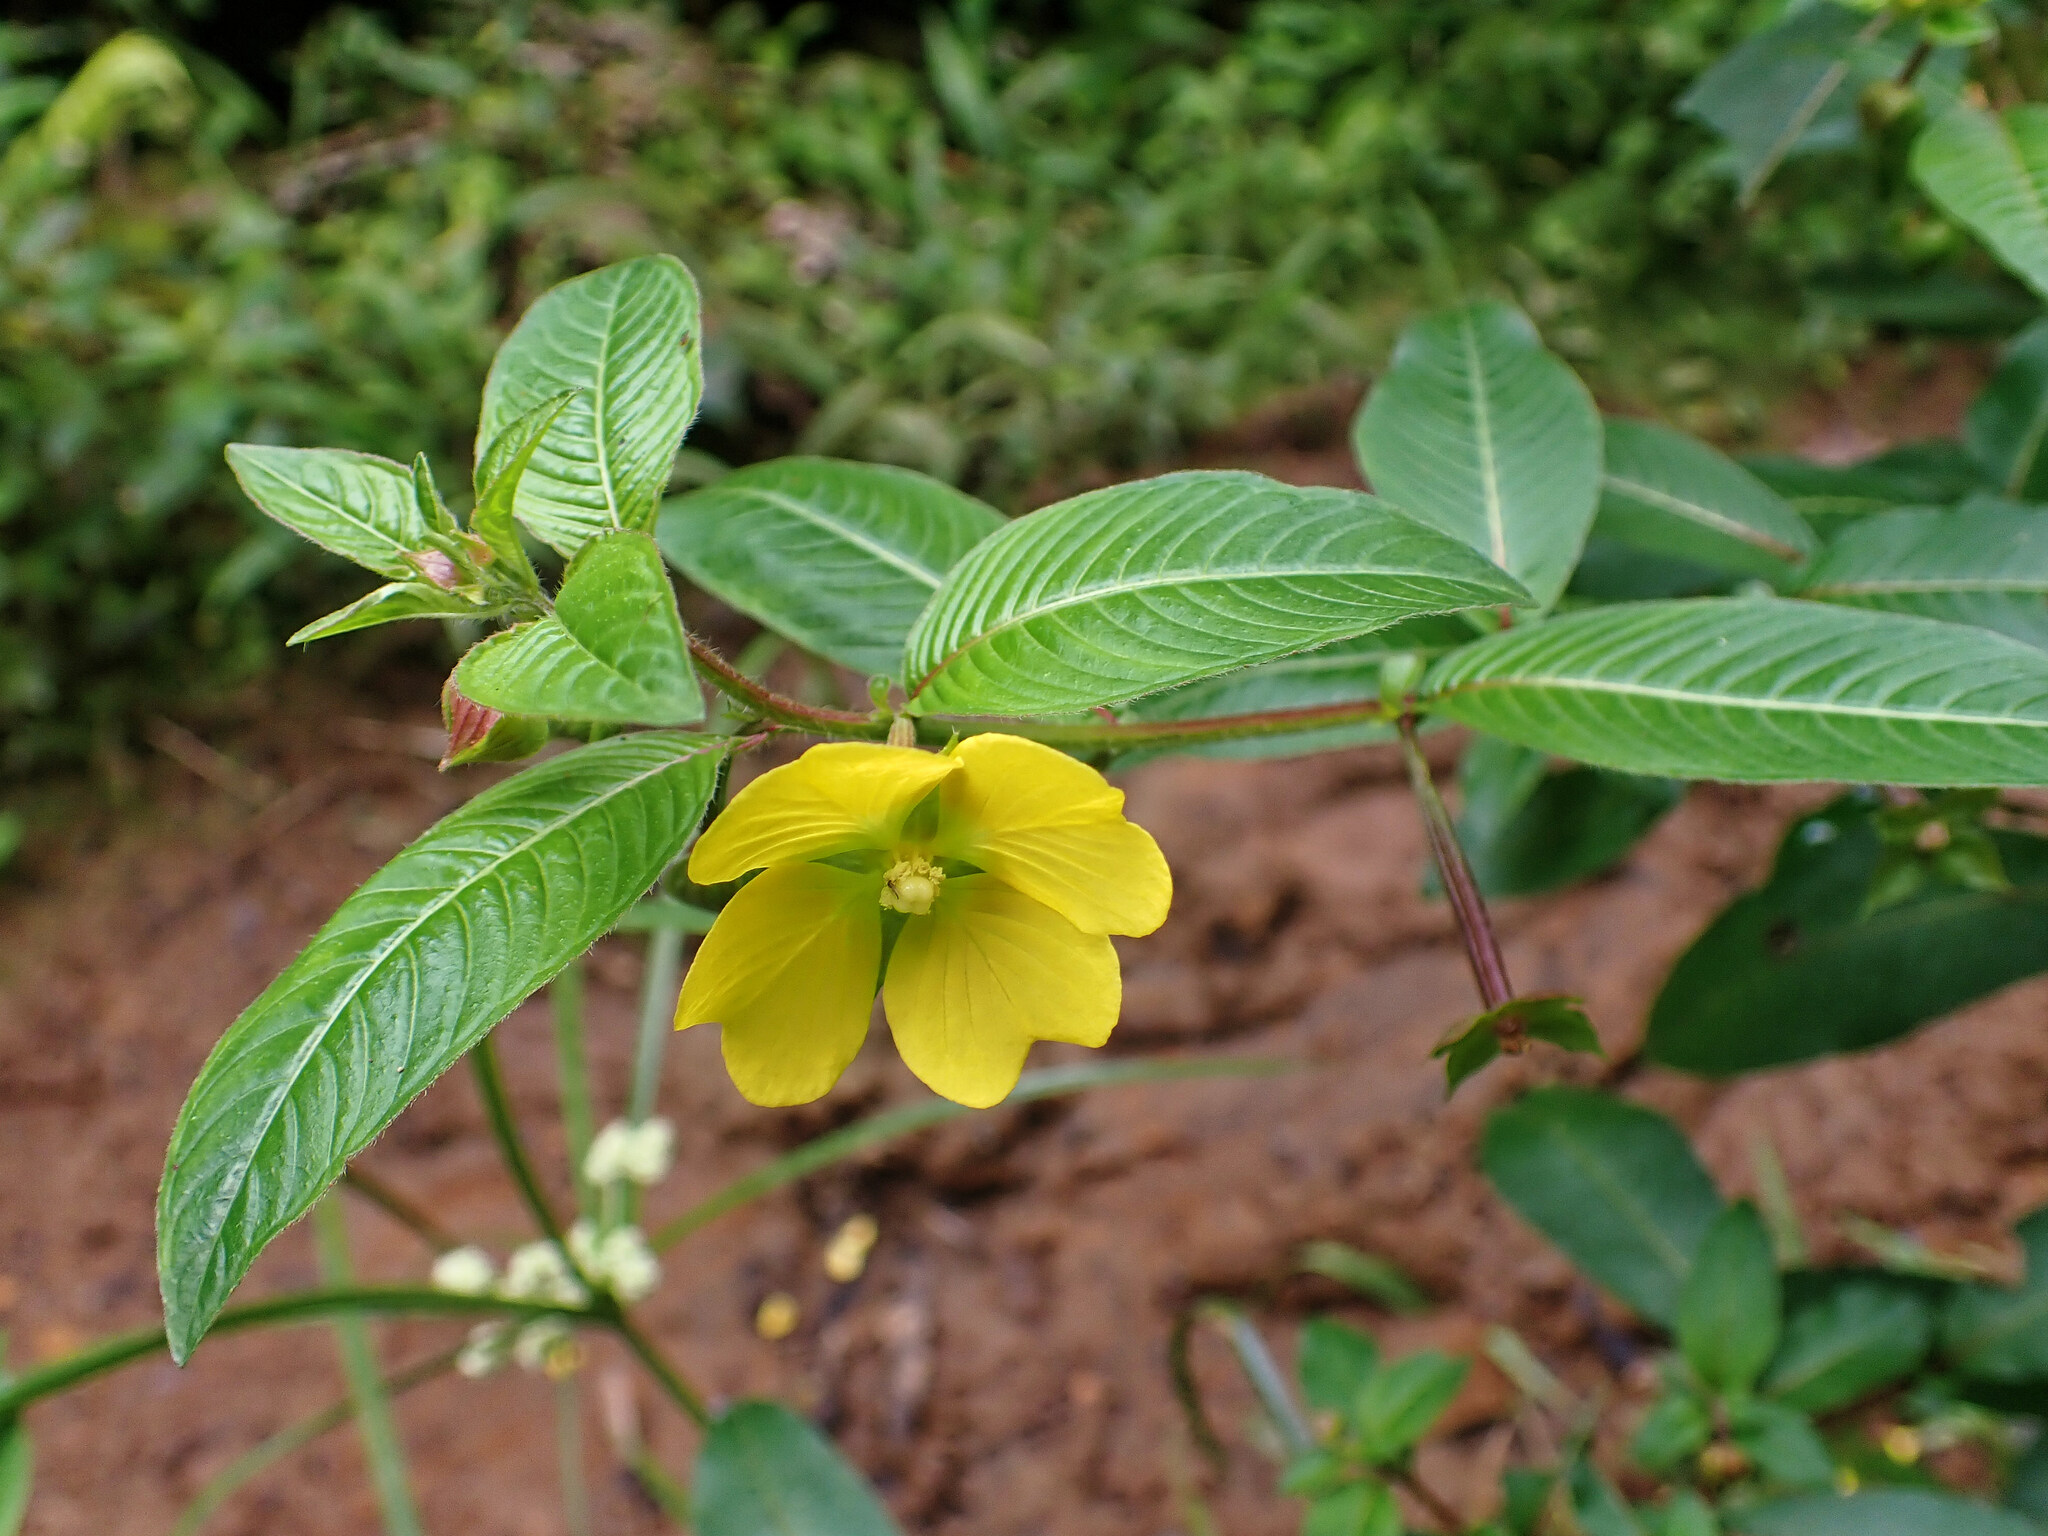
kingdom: Plantae
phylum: Tracheophyta
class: Magnoliopsida
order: Myrtales
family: Onagraceae
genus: Ludwigia
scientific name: Ludwigia octovalvis
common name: Water-primrose
